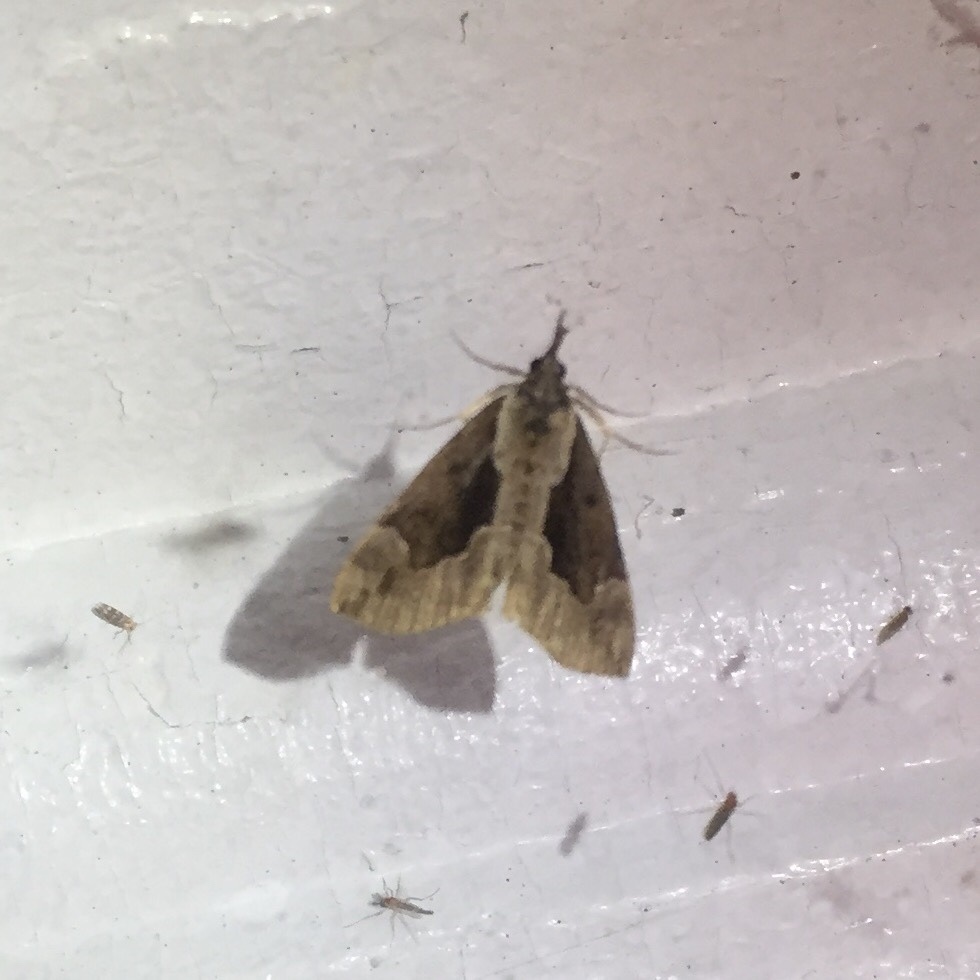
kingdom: Animalia
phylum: Arthropoda
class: Insecta
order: Lepidoptera
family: Erebidae
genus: Hypena
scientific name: Hypena baltimoralis
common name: Baltimore snout
